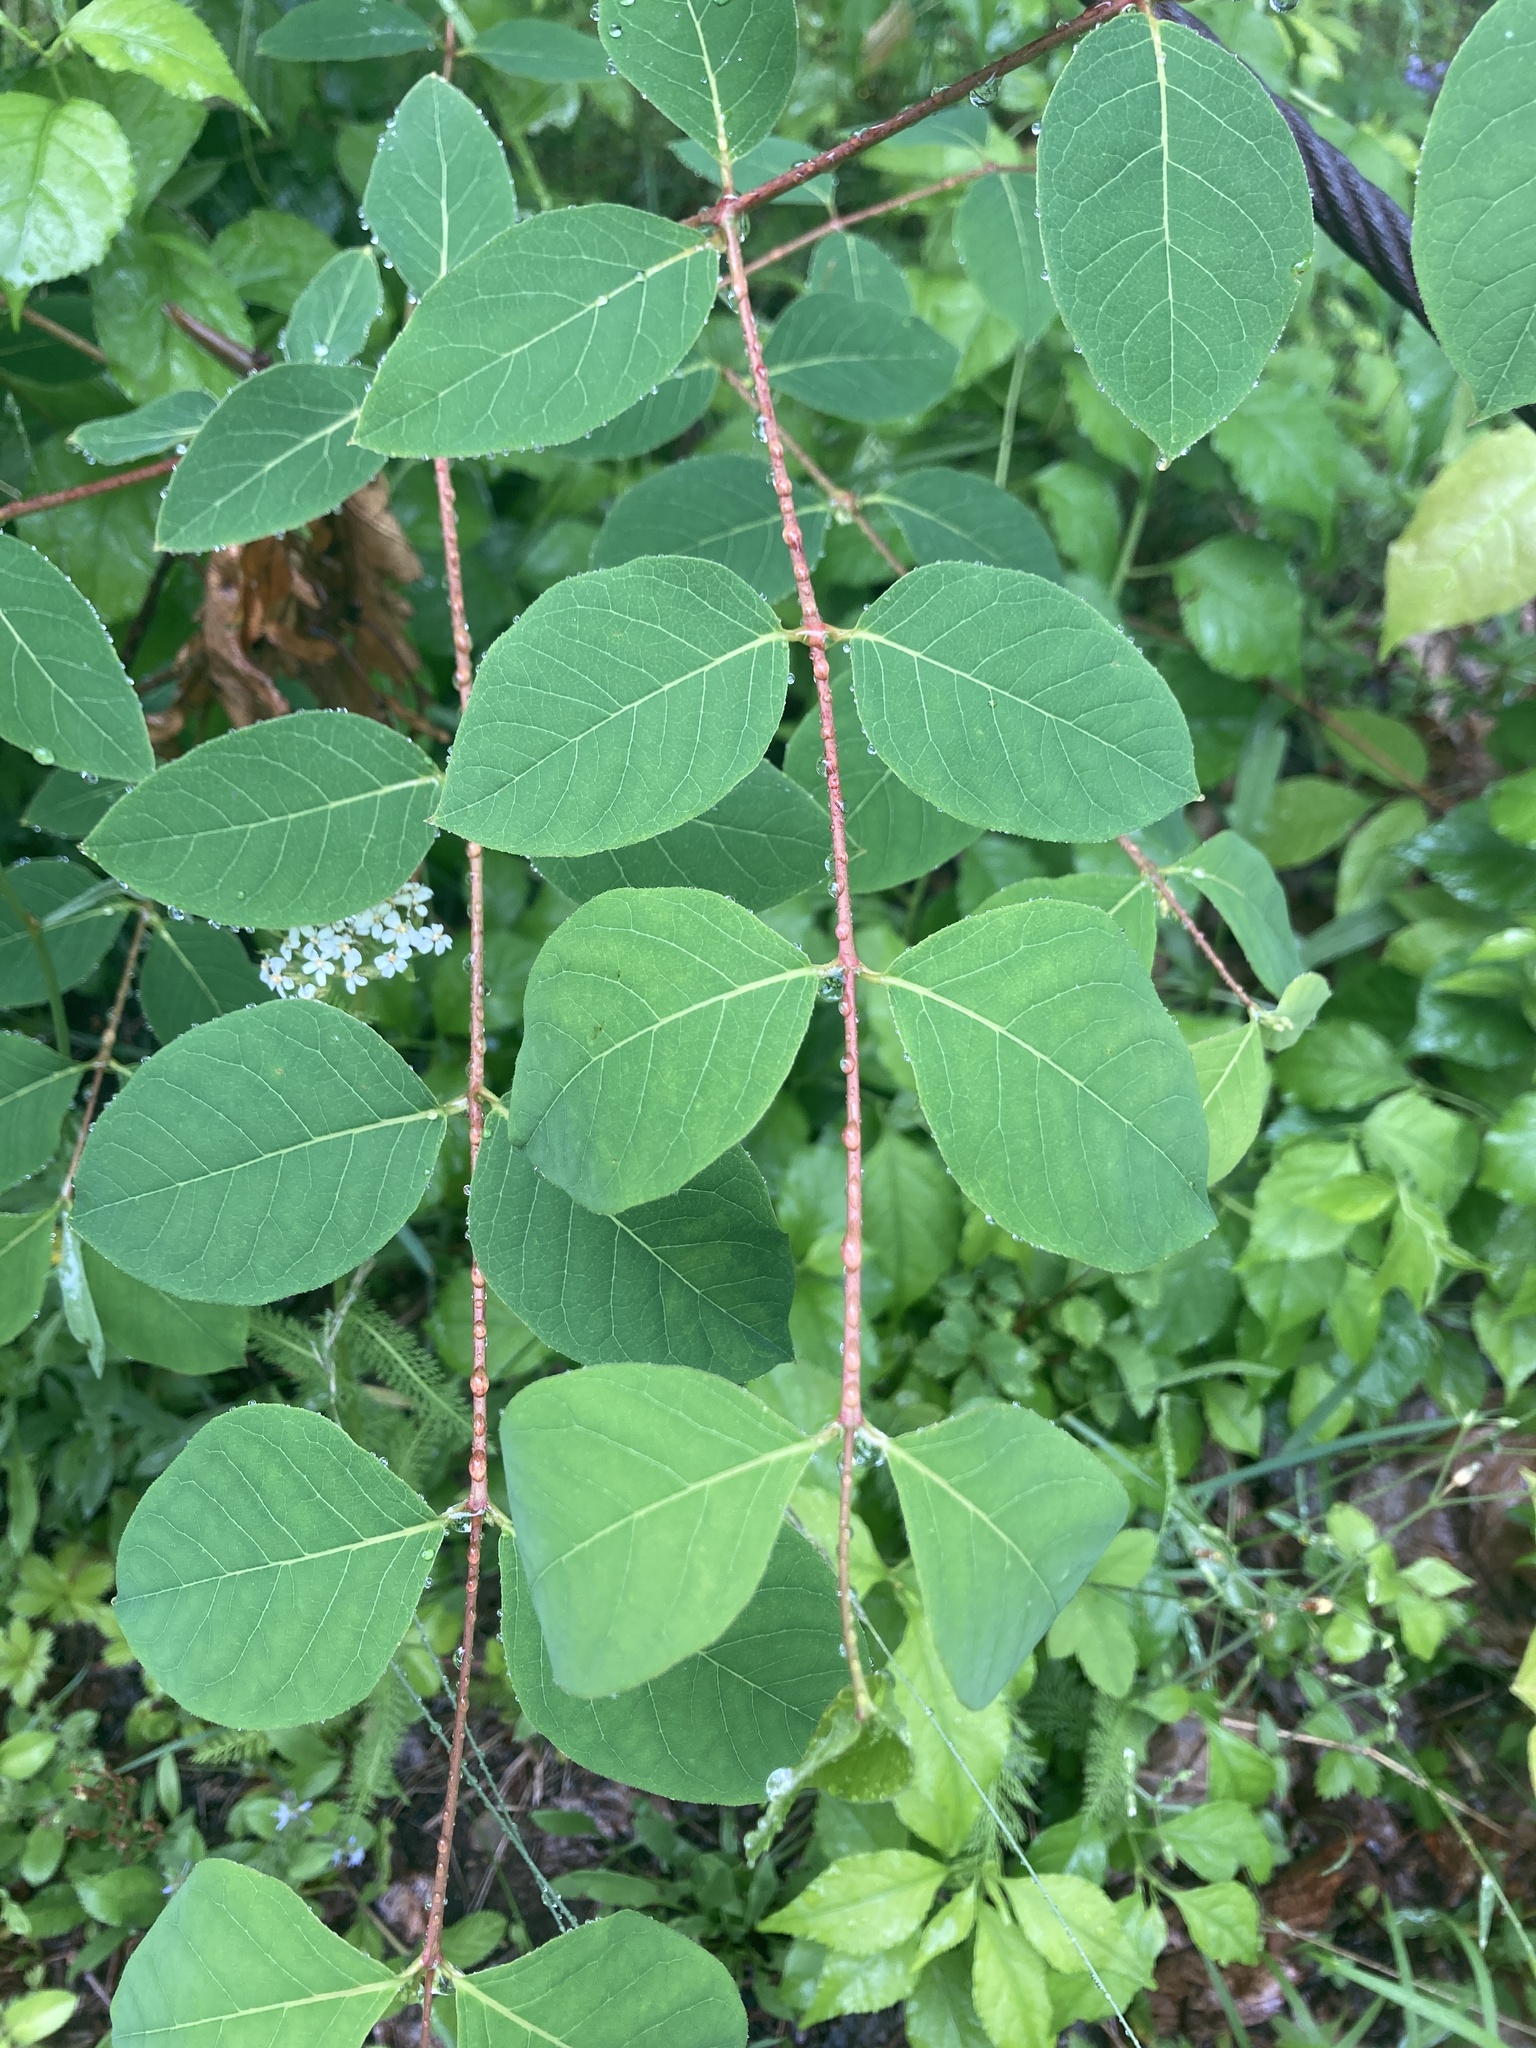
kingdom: Plantae
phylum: Tracheophyta
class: Magnoliopsida
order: Gentianales
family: Apocynaceae
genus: Apocynum
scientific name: Apocynum androsaemifolium
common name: Spreading dogbane
